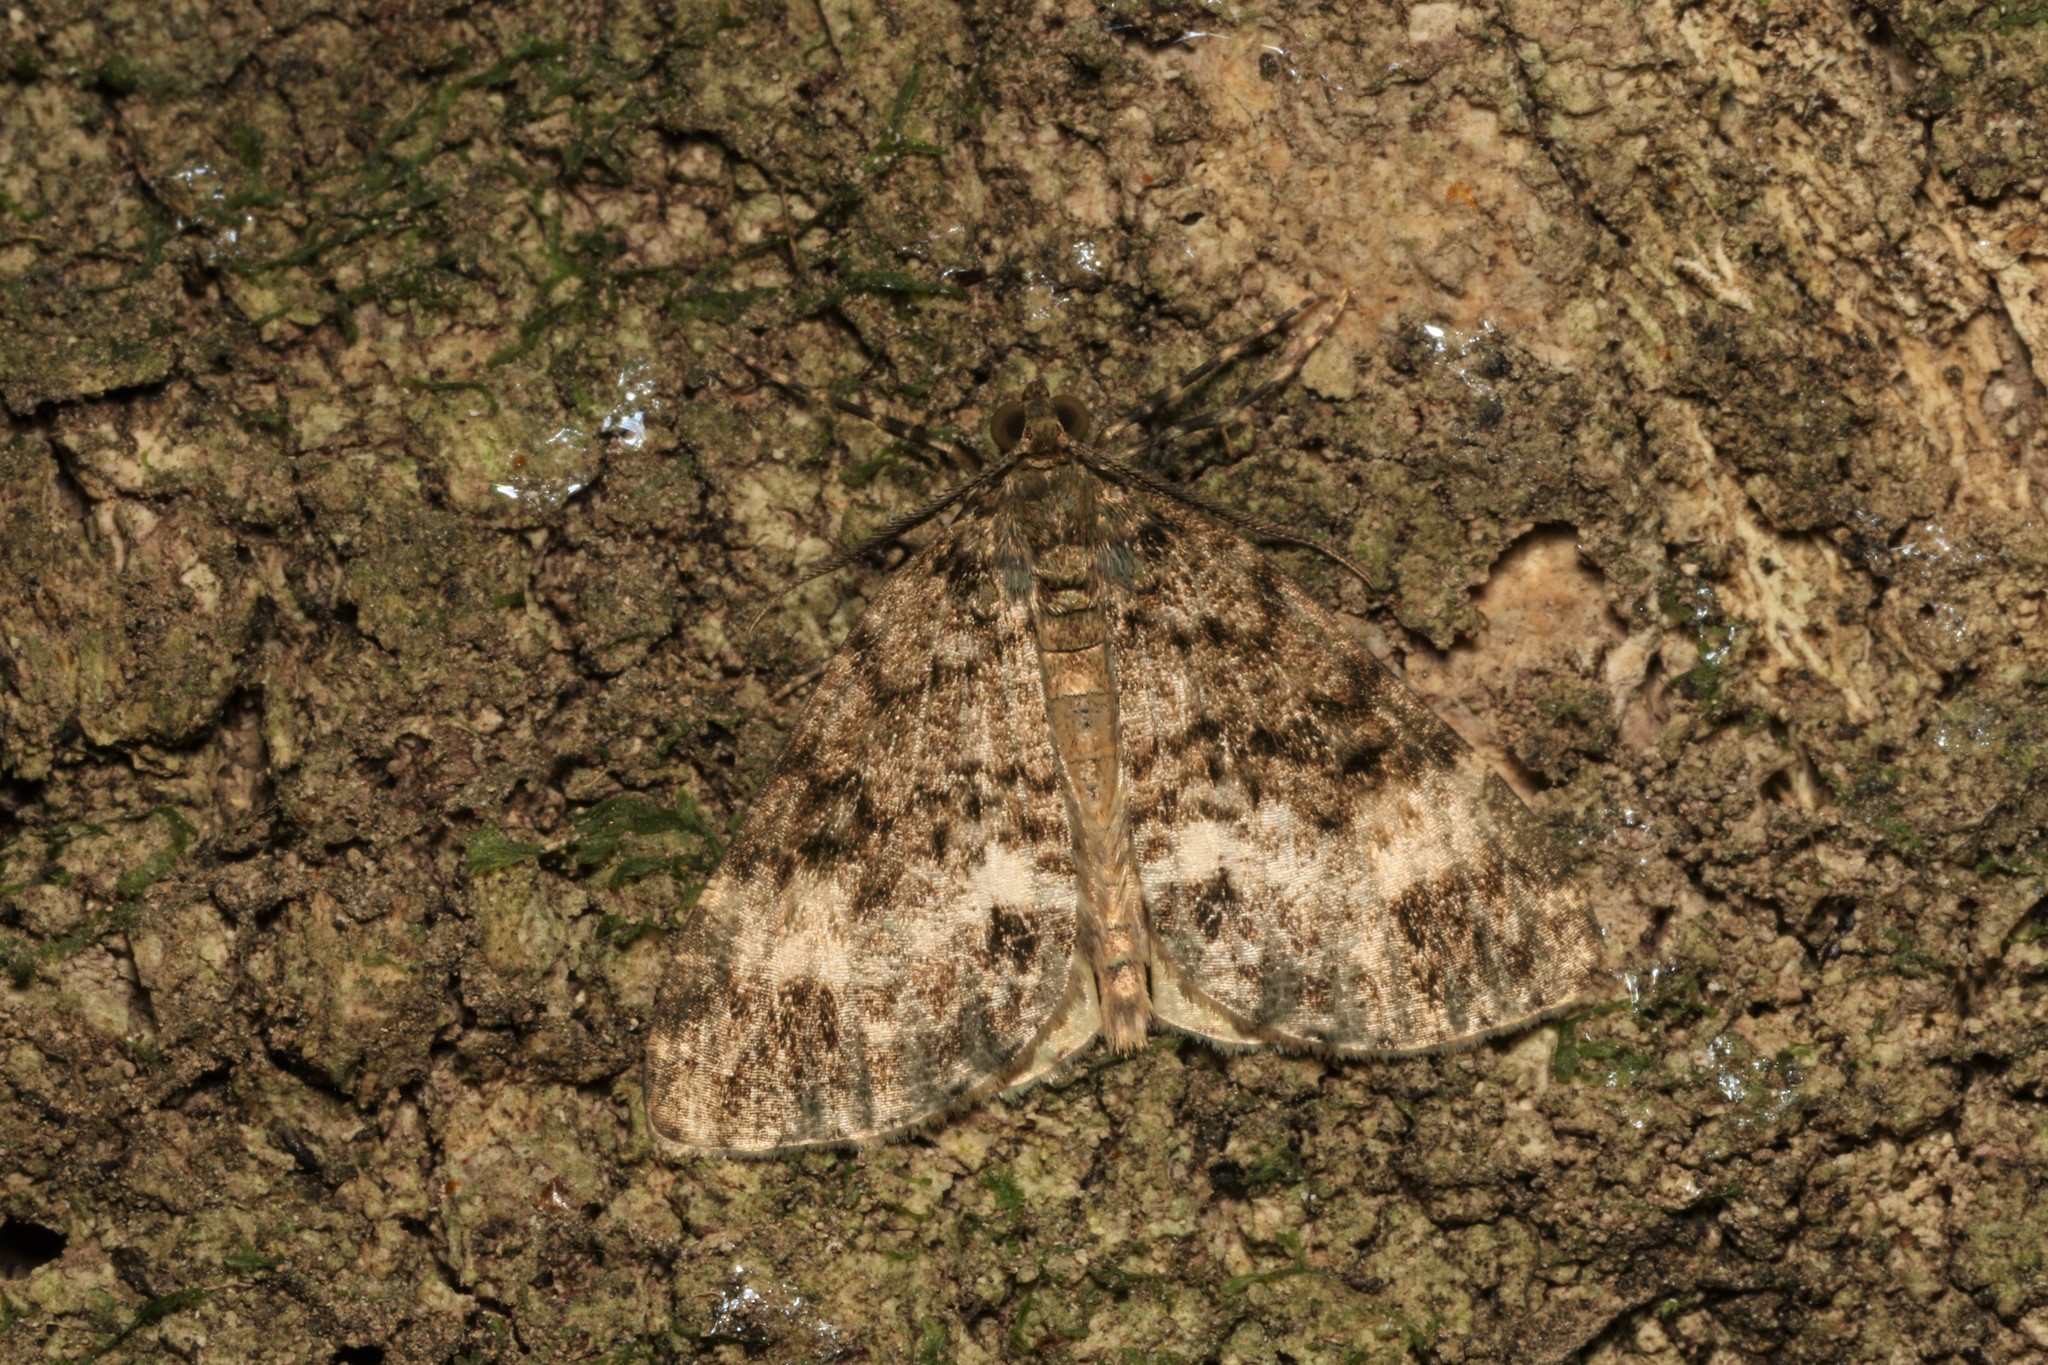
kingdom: Animalia
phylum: Arthropoda
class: Insecta
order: Lepidoptera
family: Geometridae
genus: Pseudocoremia
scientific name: Pseudocoremia indistincta
